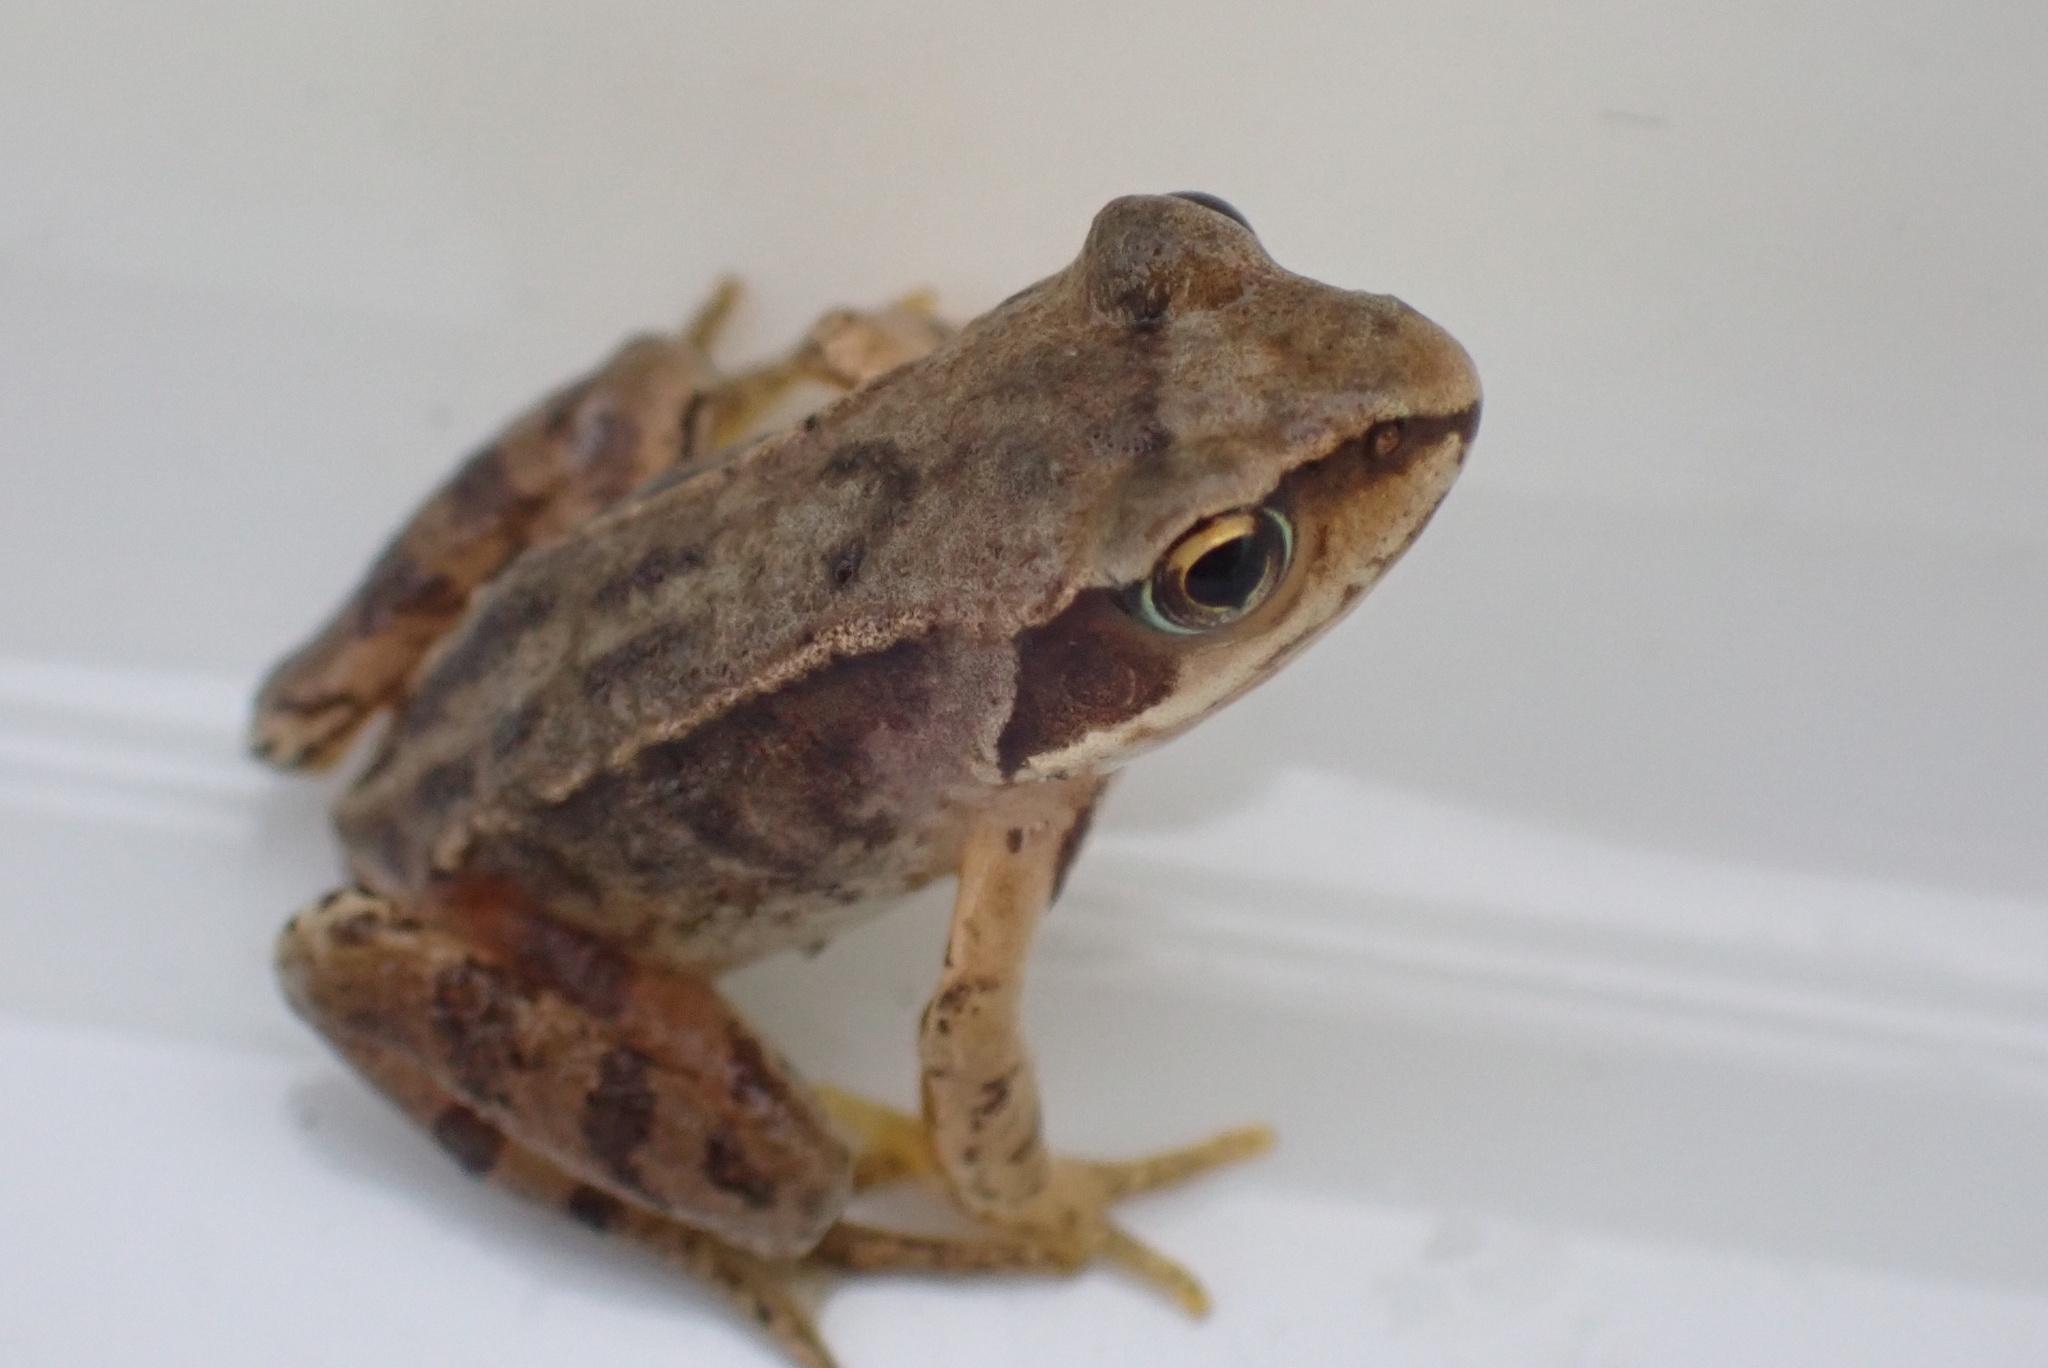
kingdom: Animalia
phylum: Chordata
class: Amphibia
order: Anura
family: Ranidae
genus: Rana
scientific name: Rana temporaria
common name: Common frog
